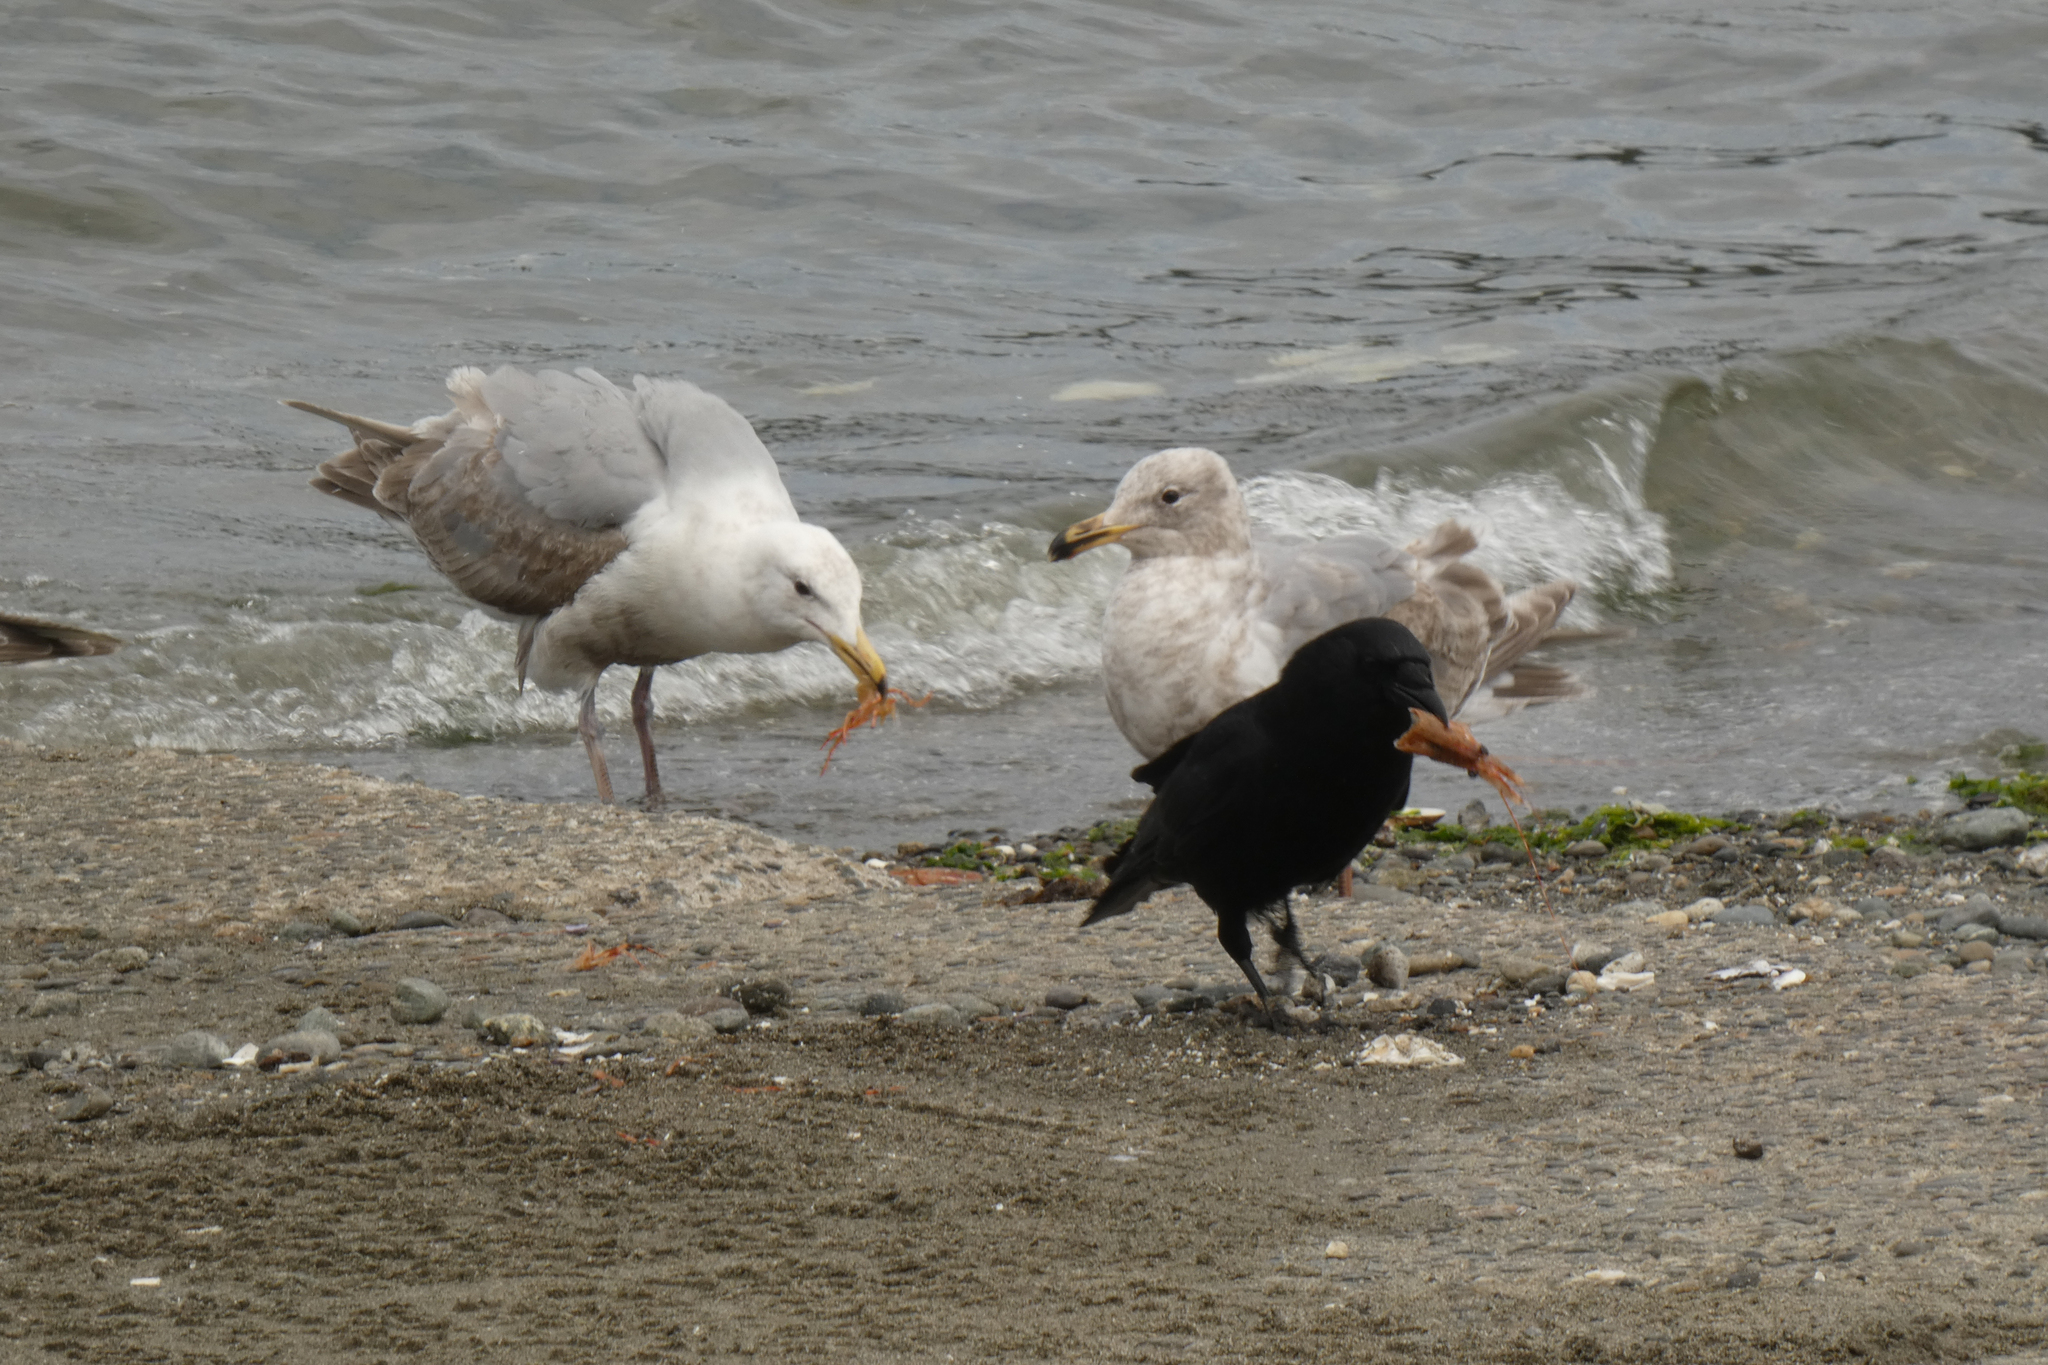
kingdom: Animalia
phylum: Chordata
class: Aves
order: Passeriformes
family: Corvidae
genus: Corvus
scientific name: Corvus brachyrhynchos
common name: American crow
